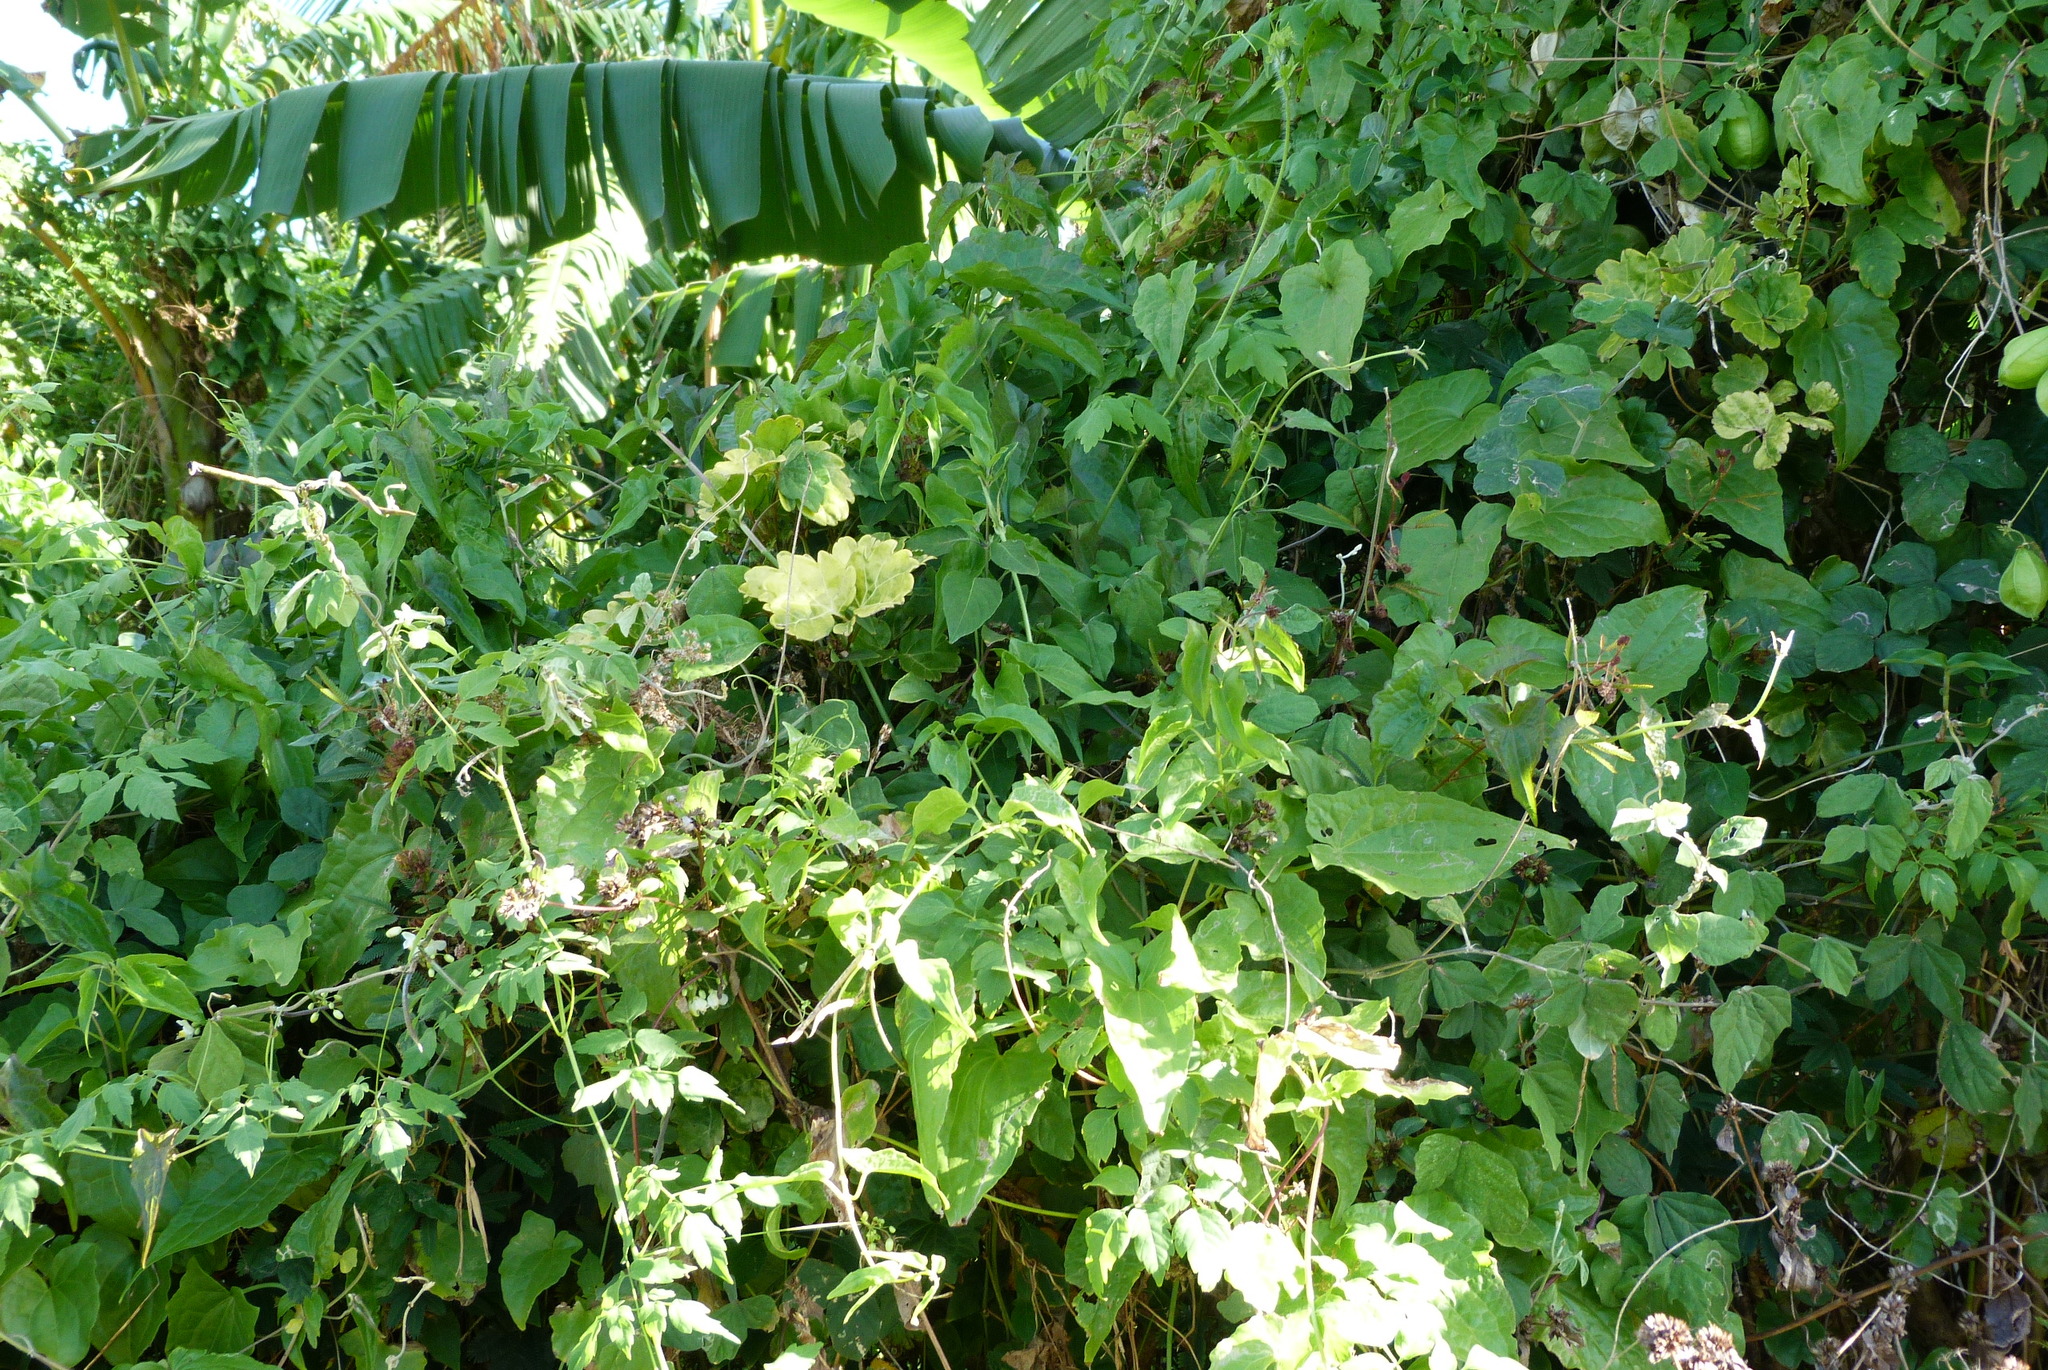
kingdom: Plantae
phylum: Tracheophyta
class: Magnoliopsida
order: Asterales
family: Asteraceae
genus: Mikania
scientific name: Mikania micrantha
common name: Mile-a-minute
